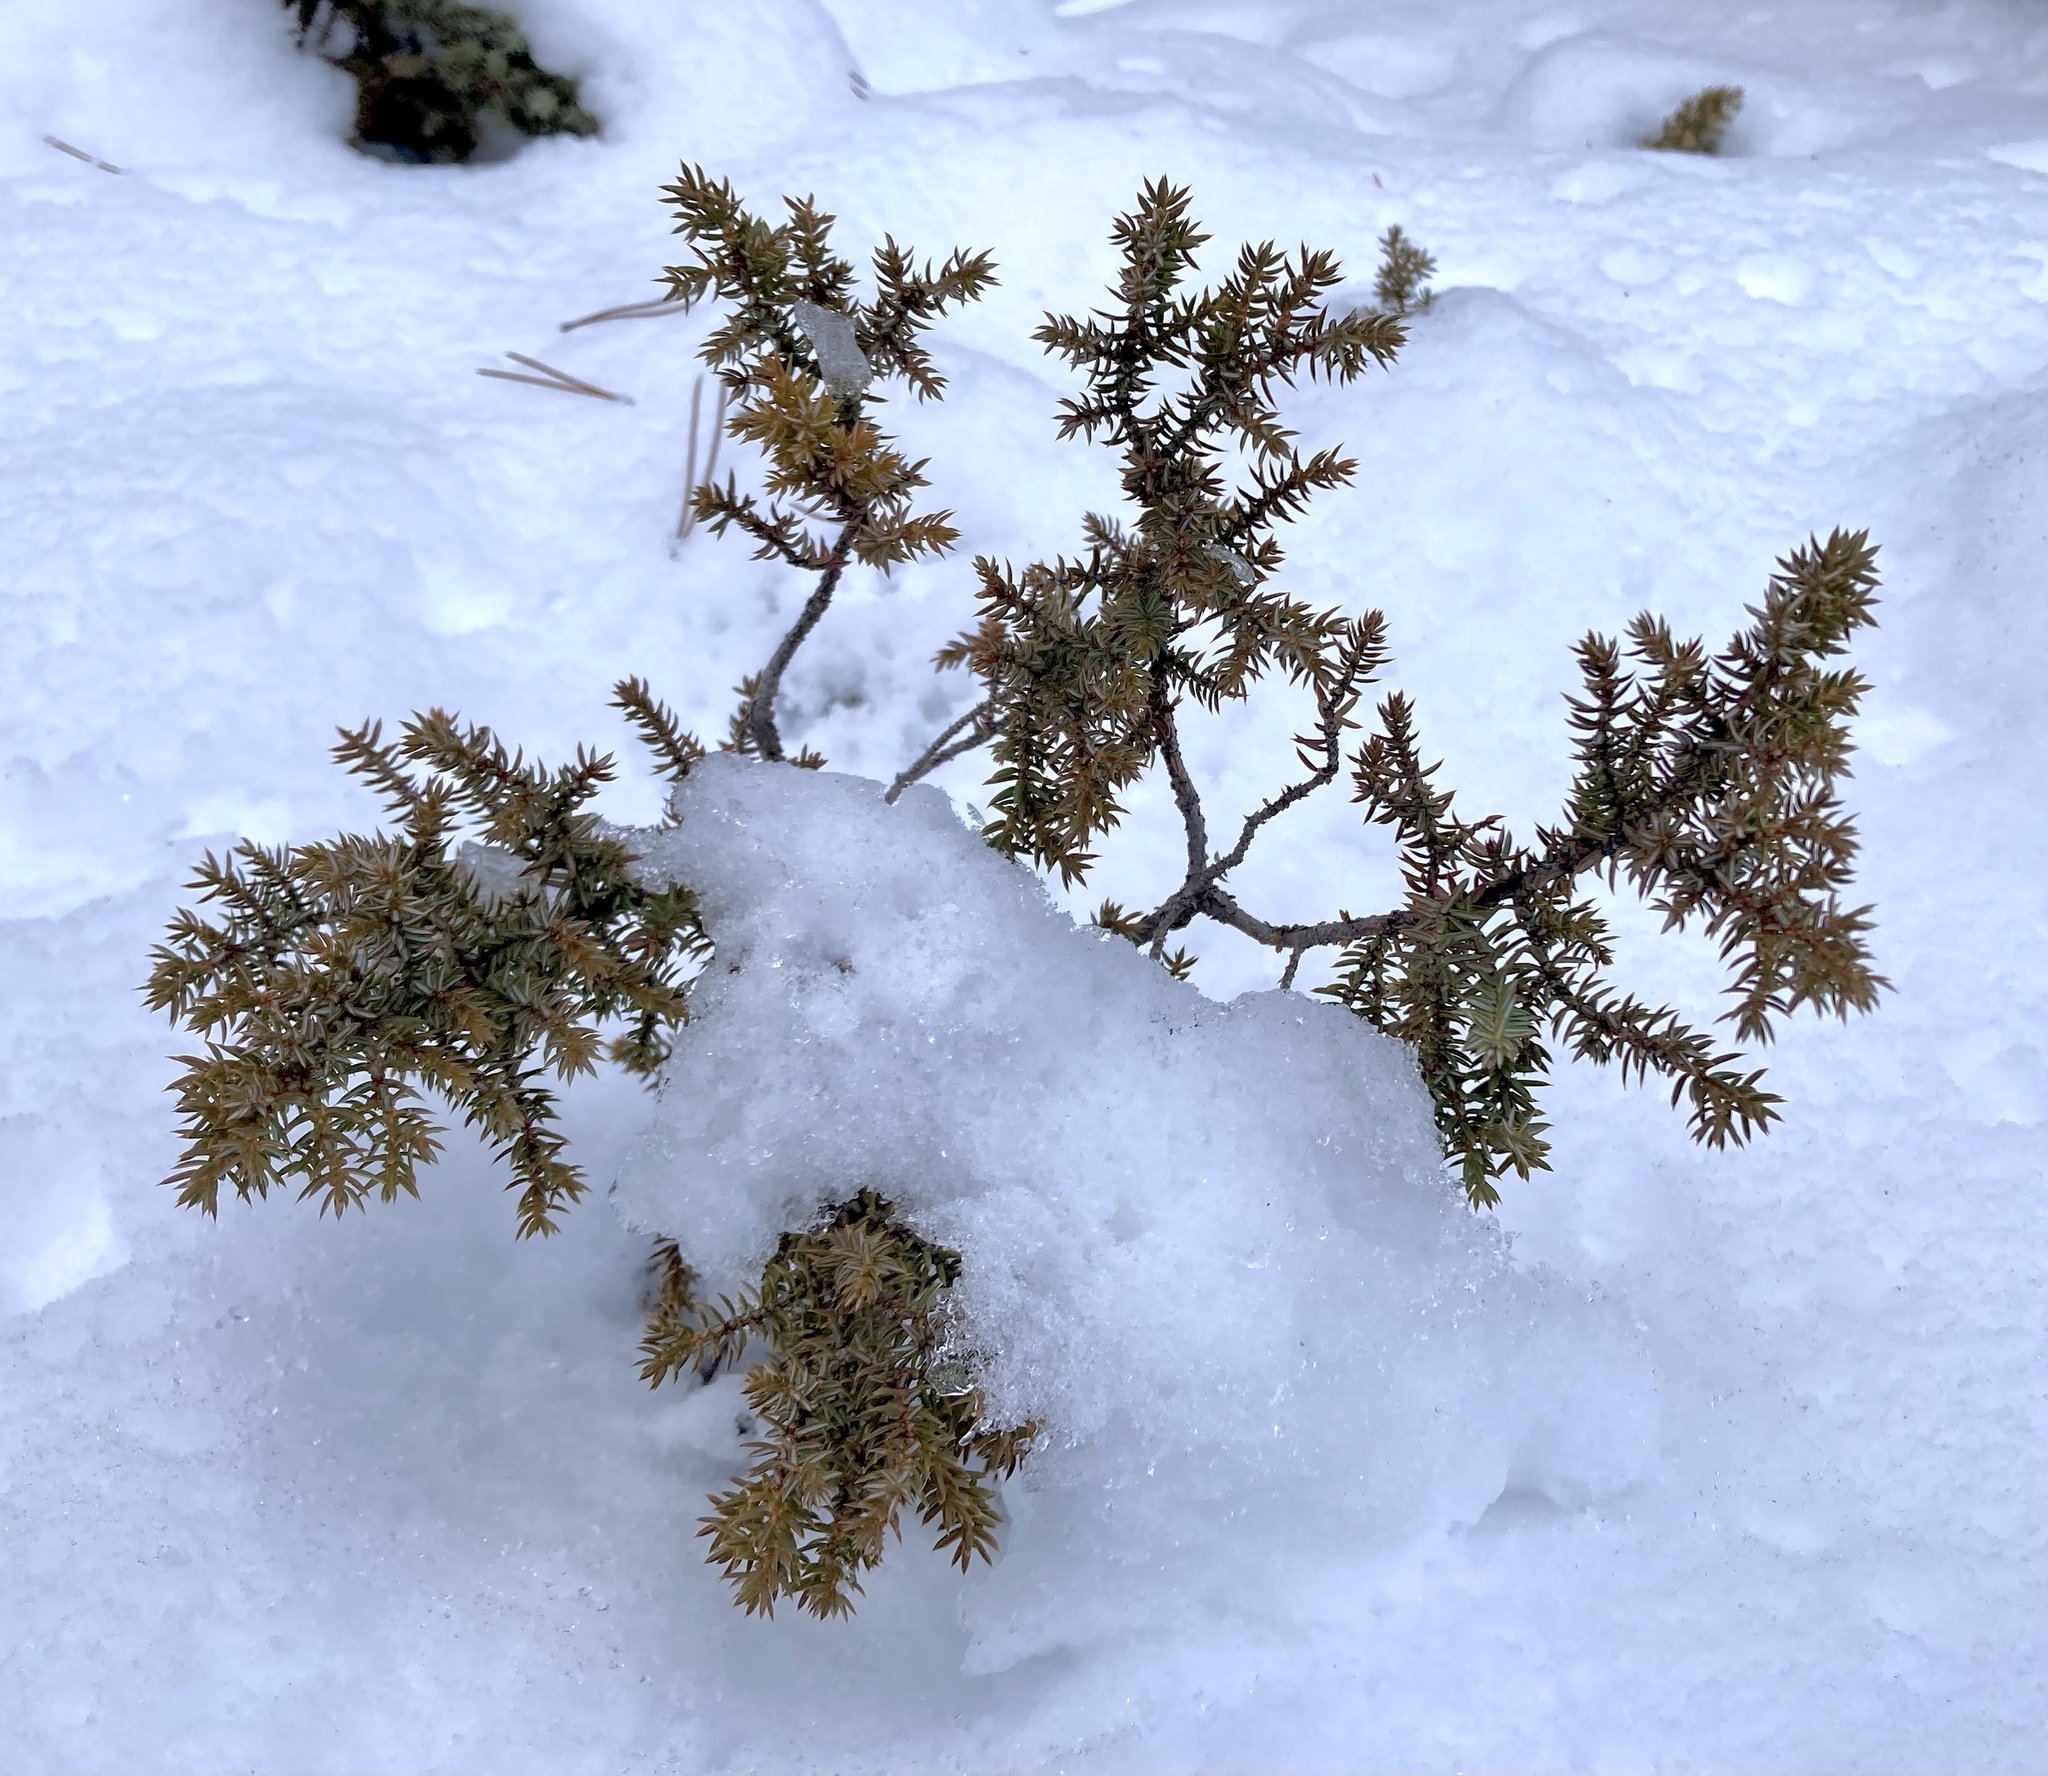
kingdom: Plantae
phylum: Tracheophyta
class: Pinopsida
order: Pinales
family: Cupressaceae
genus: Juniperus
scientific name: Juniperus communis
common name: Common juniper
